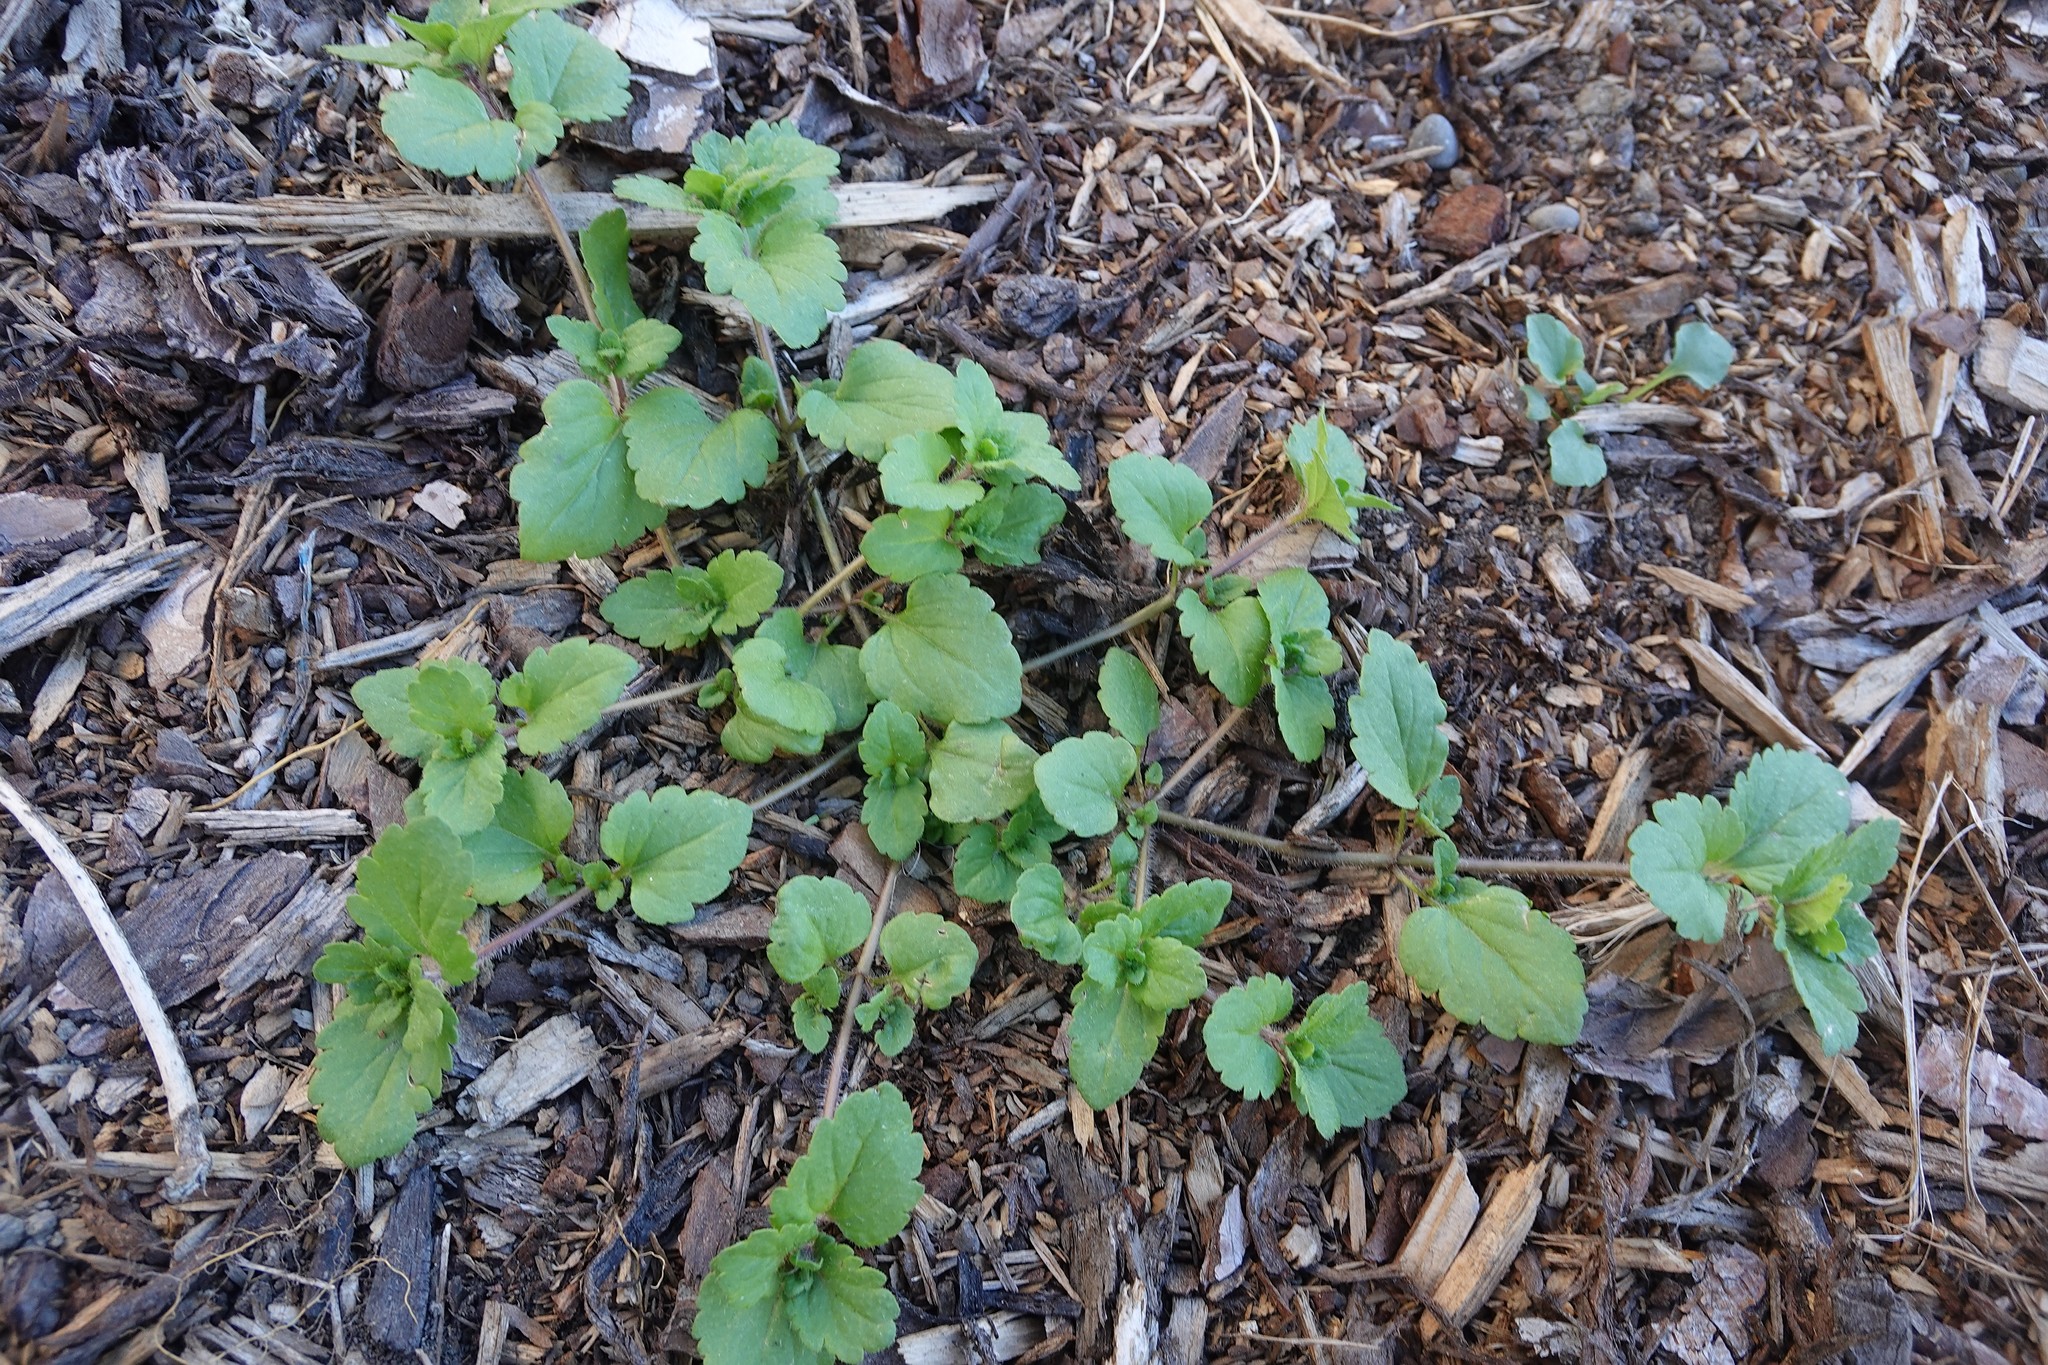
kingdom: Plantae
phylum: Tracheophyta
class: Magnoliopsida
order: Lamiales
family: Plantaginaceae
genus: Veronica
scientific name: Veronica persica
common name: Common field-speedwell
